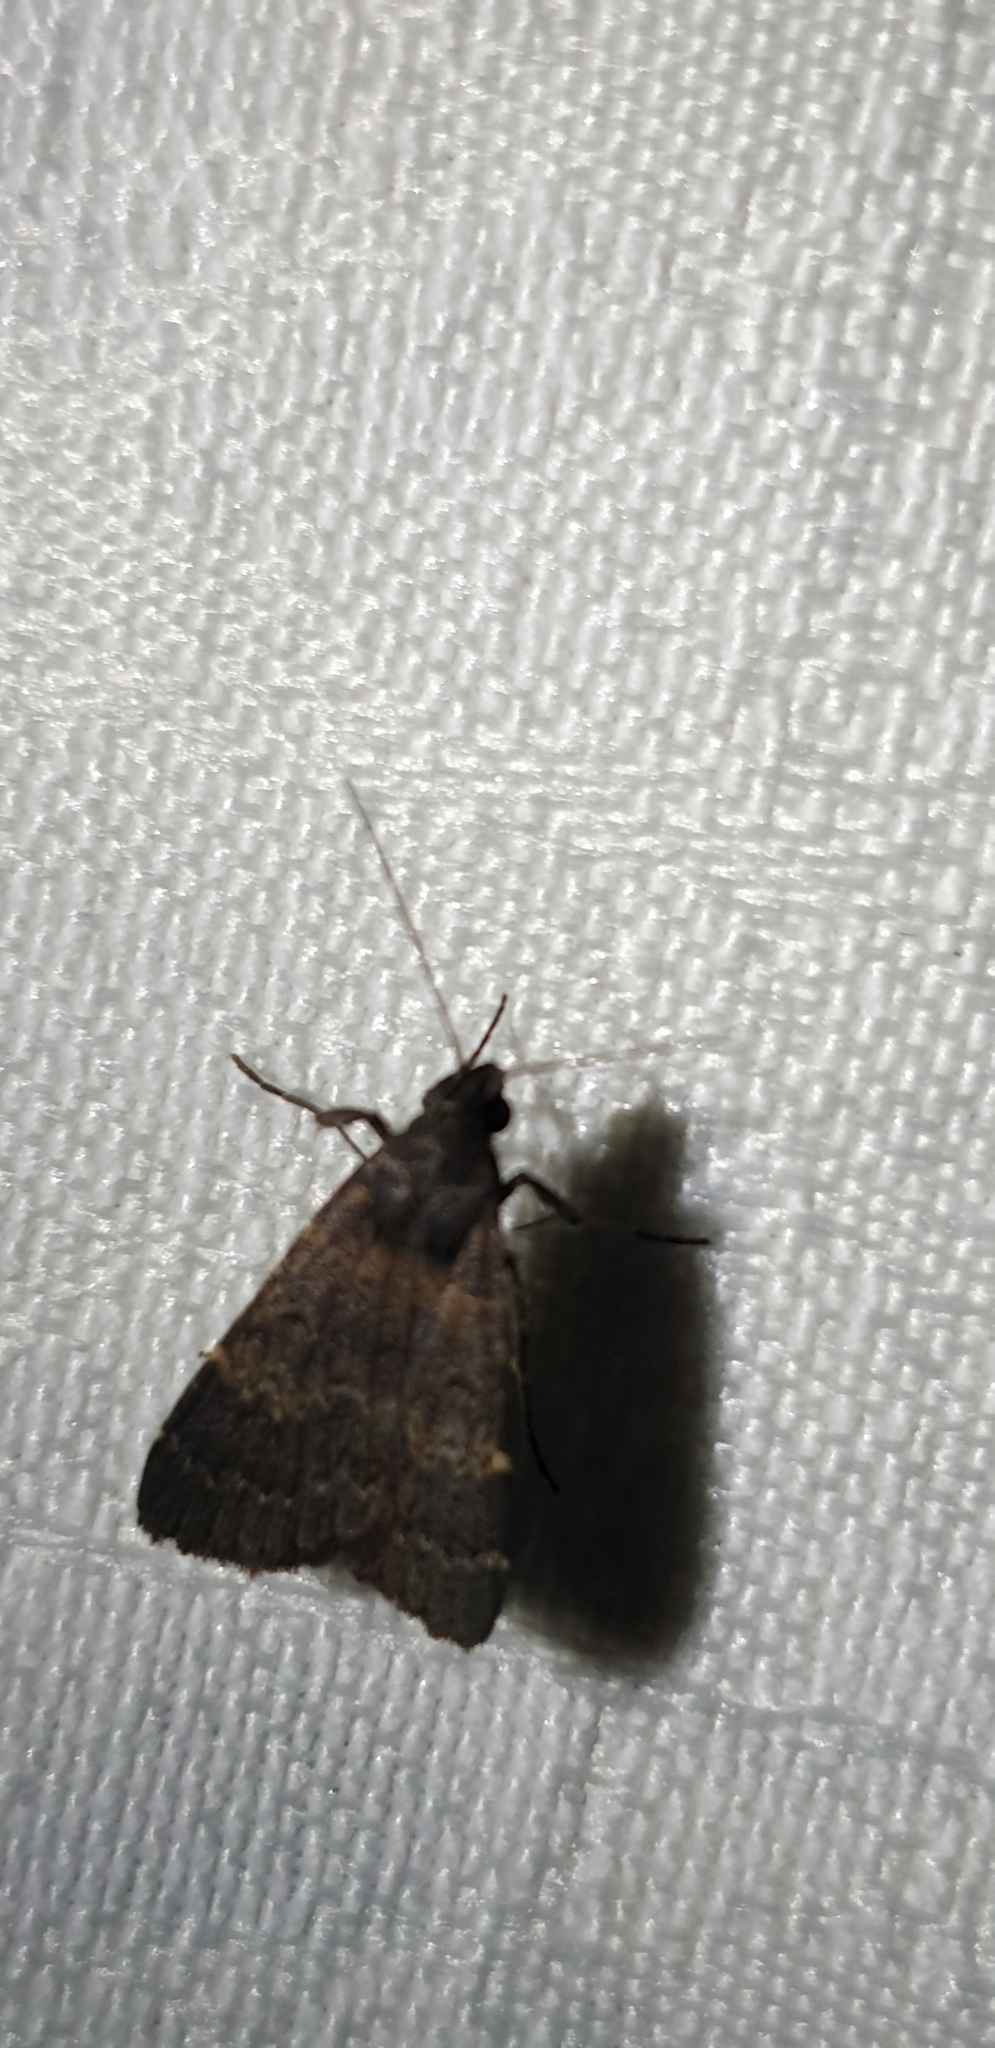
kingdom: Animalia
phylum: Arthropoda
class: Insecta
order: Lepidoptera
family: Erebidae
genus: Hydrillodes
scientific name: Hydrillodes funestalis
